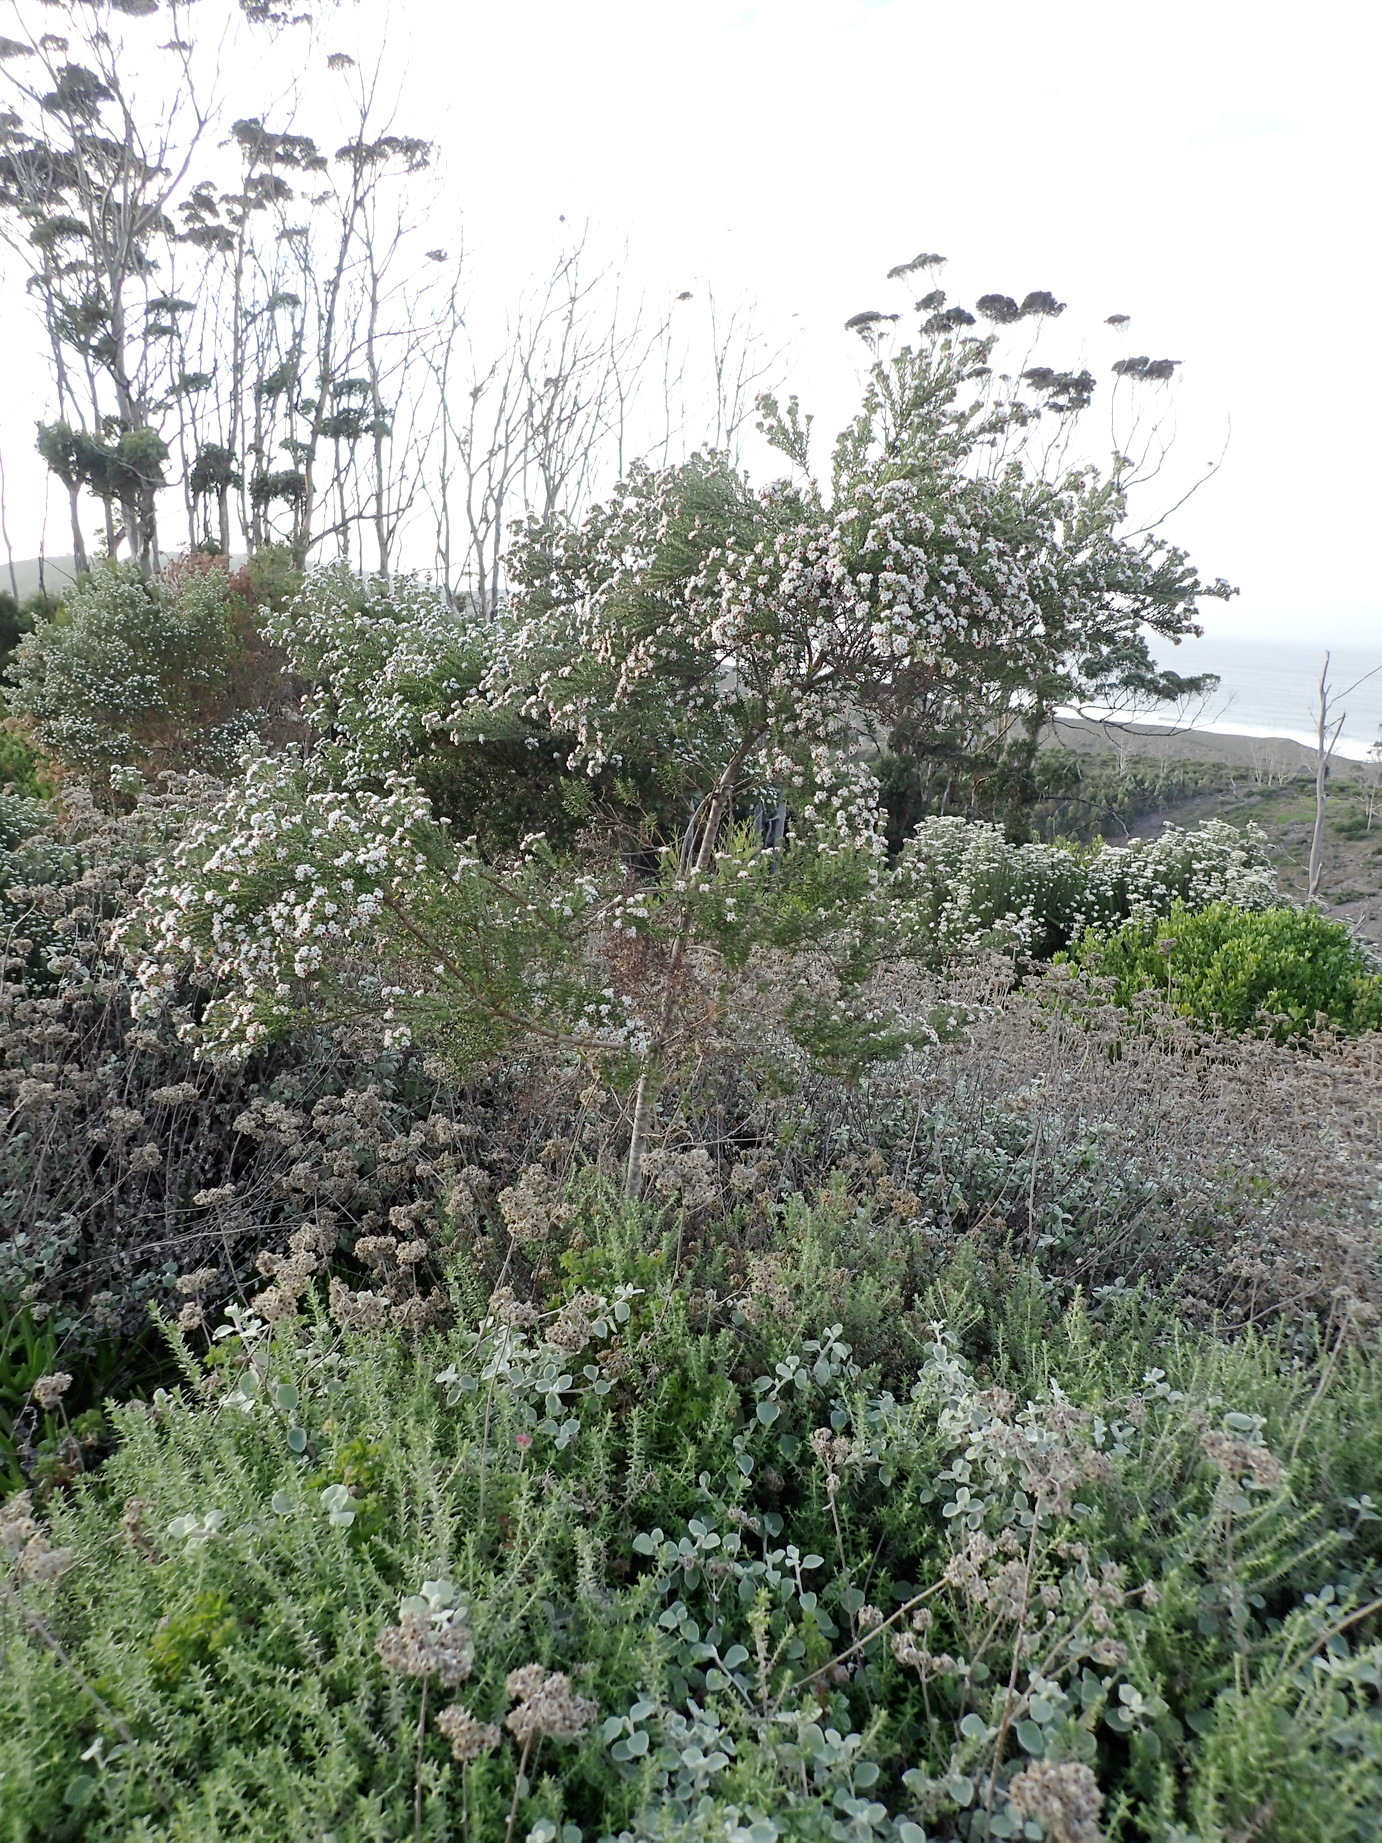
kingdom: Plantae
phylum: Tracheophyta
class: Magnoliopsida
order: Rosales
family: Rhamnaceae
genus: Phylica
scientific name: Phylica purpurea
